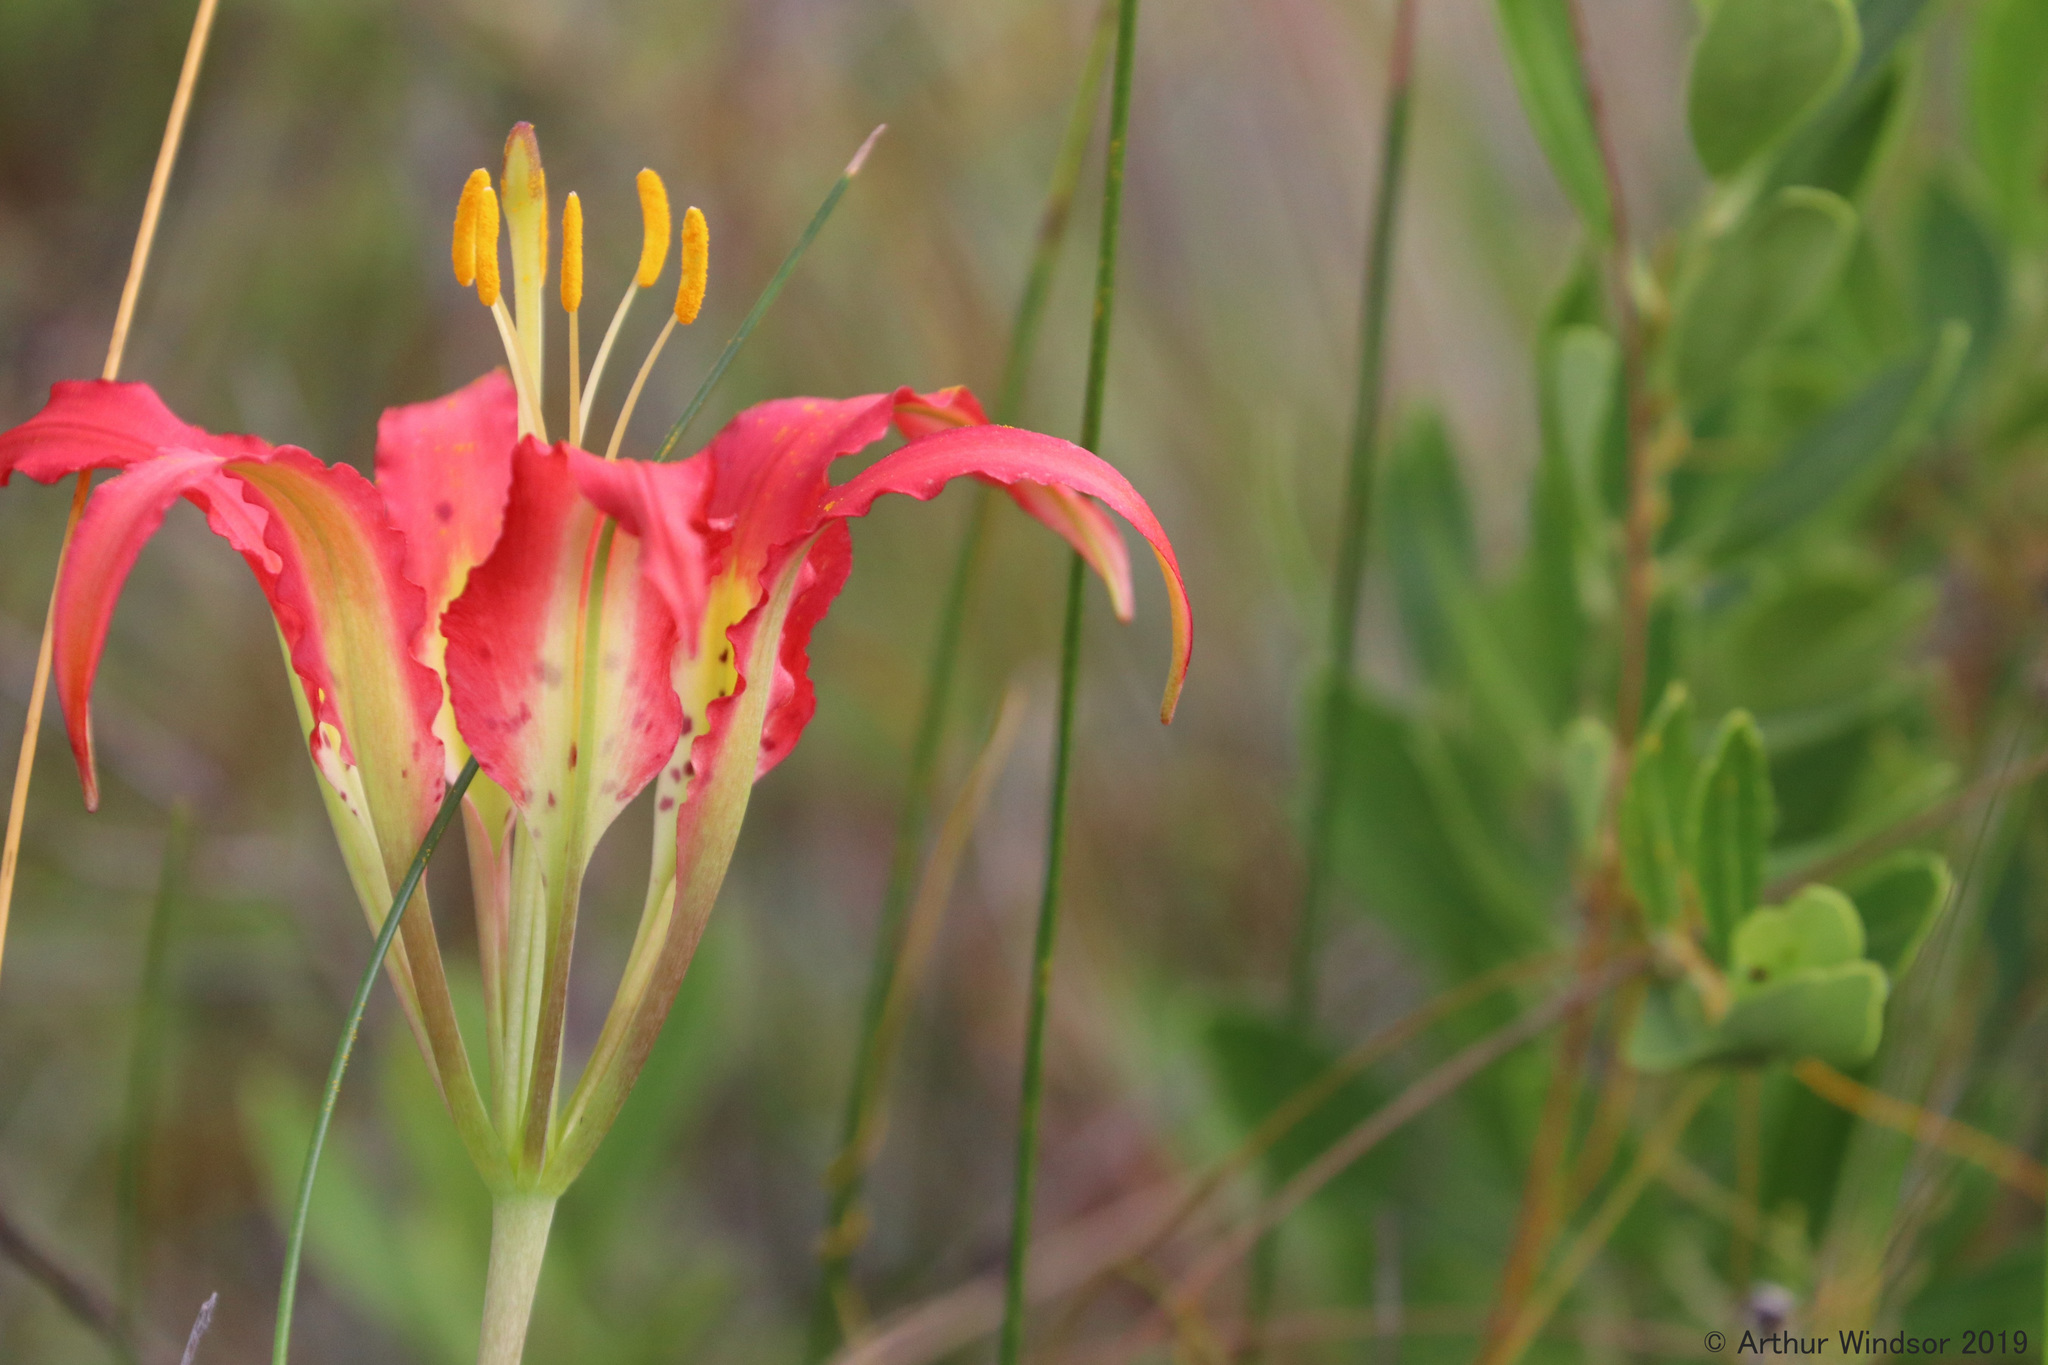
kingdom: Plantae
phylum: Tracheophyta
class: Liliopsida
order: Liliales
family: Liliaceae
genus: Lilium
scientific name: Lilium catesbaei
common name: Catesby's lily
